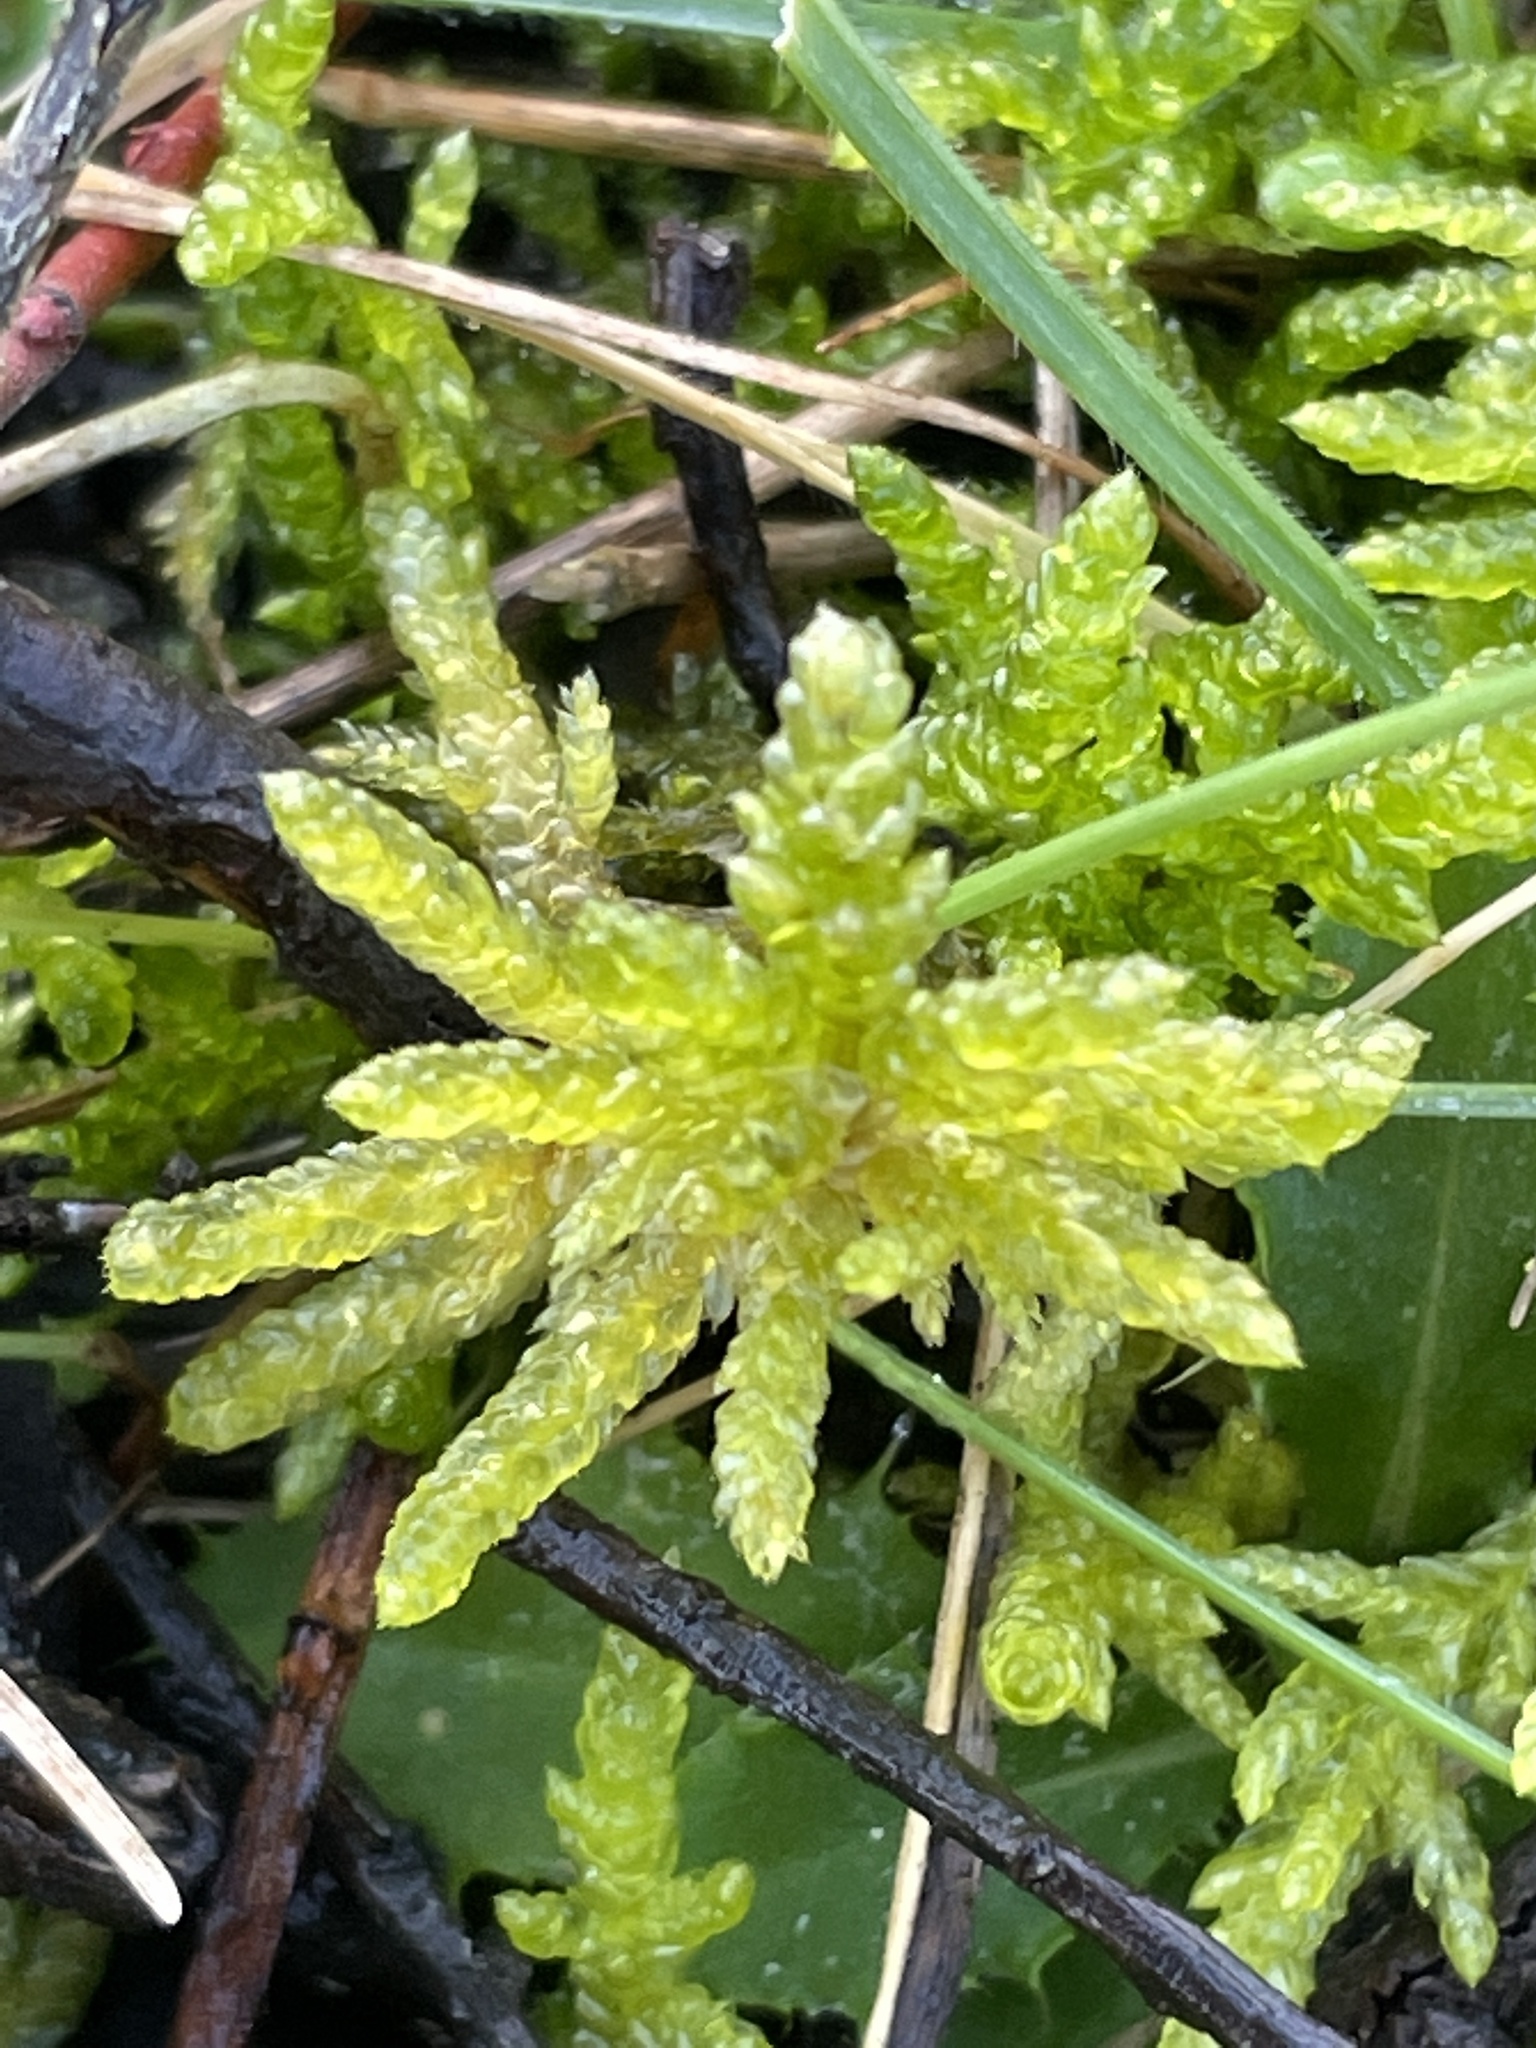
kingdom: Plantae
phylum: Bryophyta
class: Bryopsida
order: Hypnales
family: Brachytheciaceae
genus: Pseudoscleropodium
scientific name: Pseudoscleropodium purum
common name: Neat feather-moss
